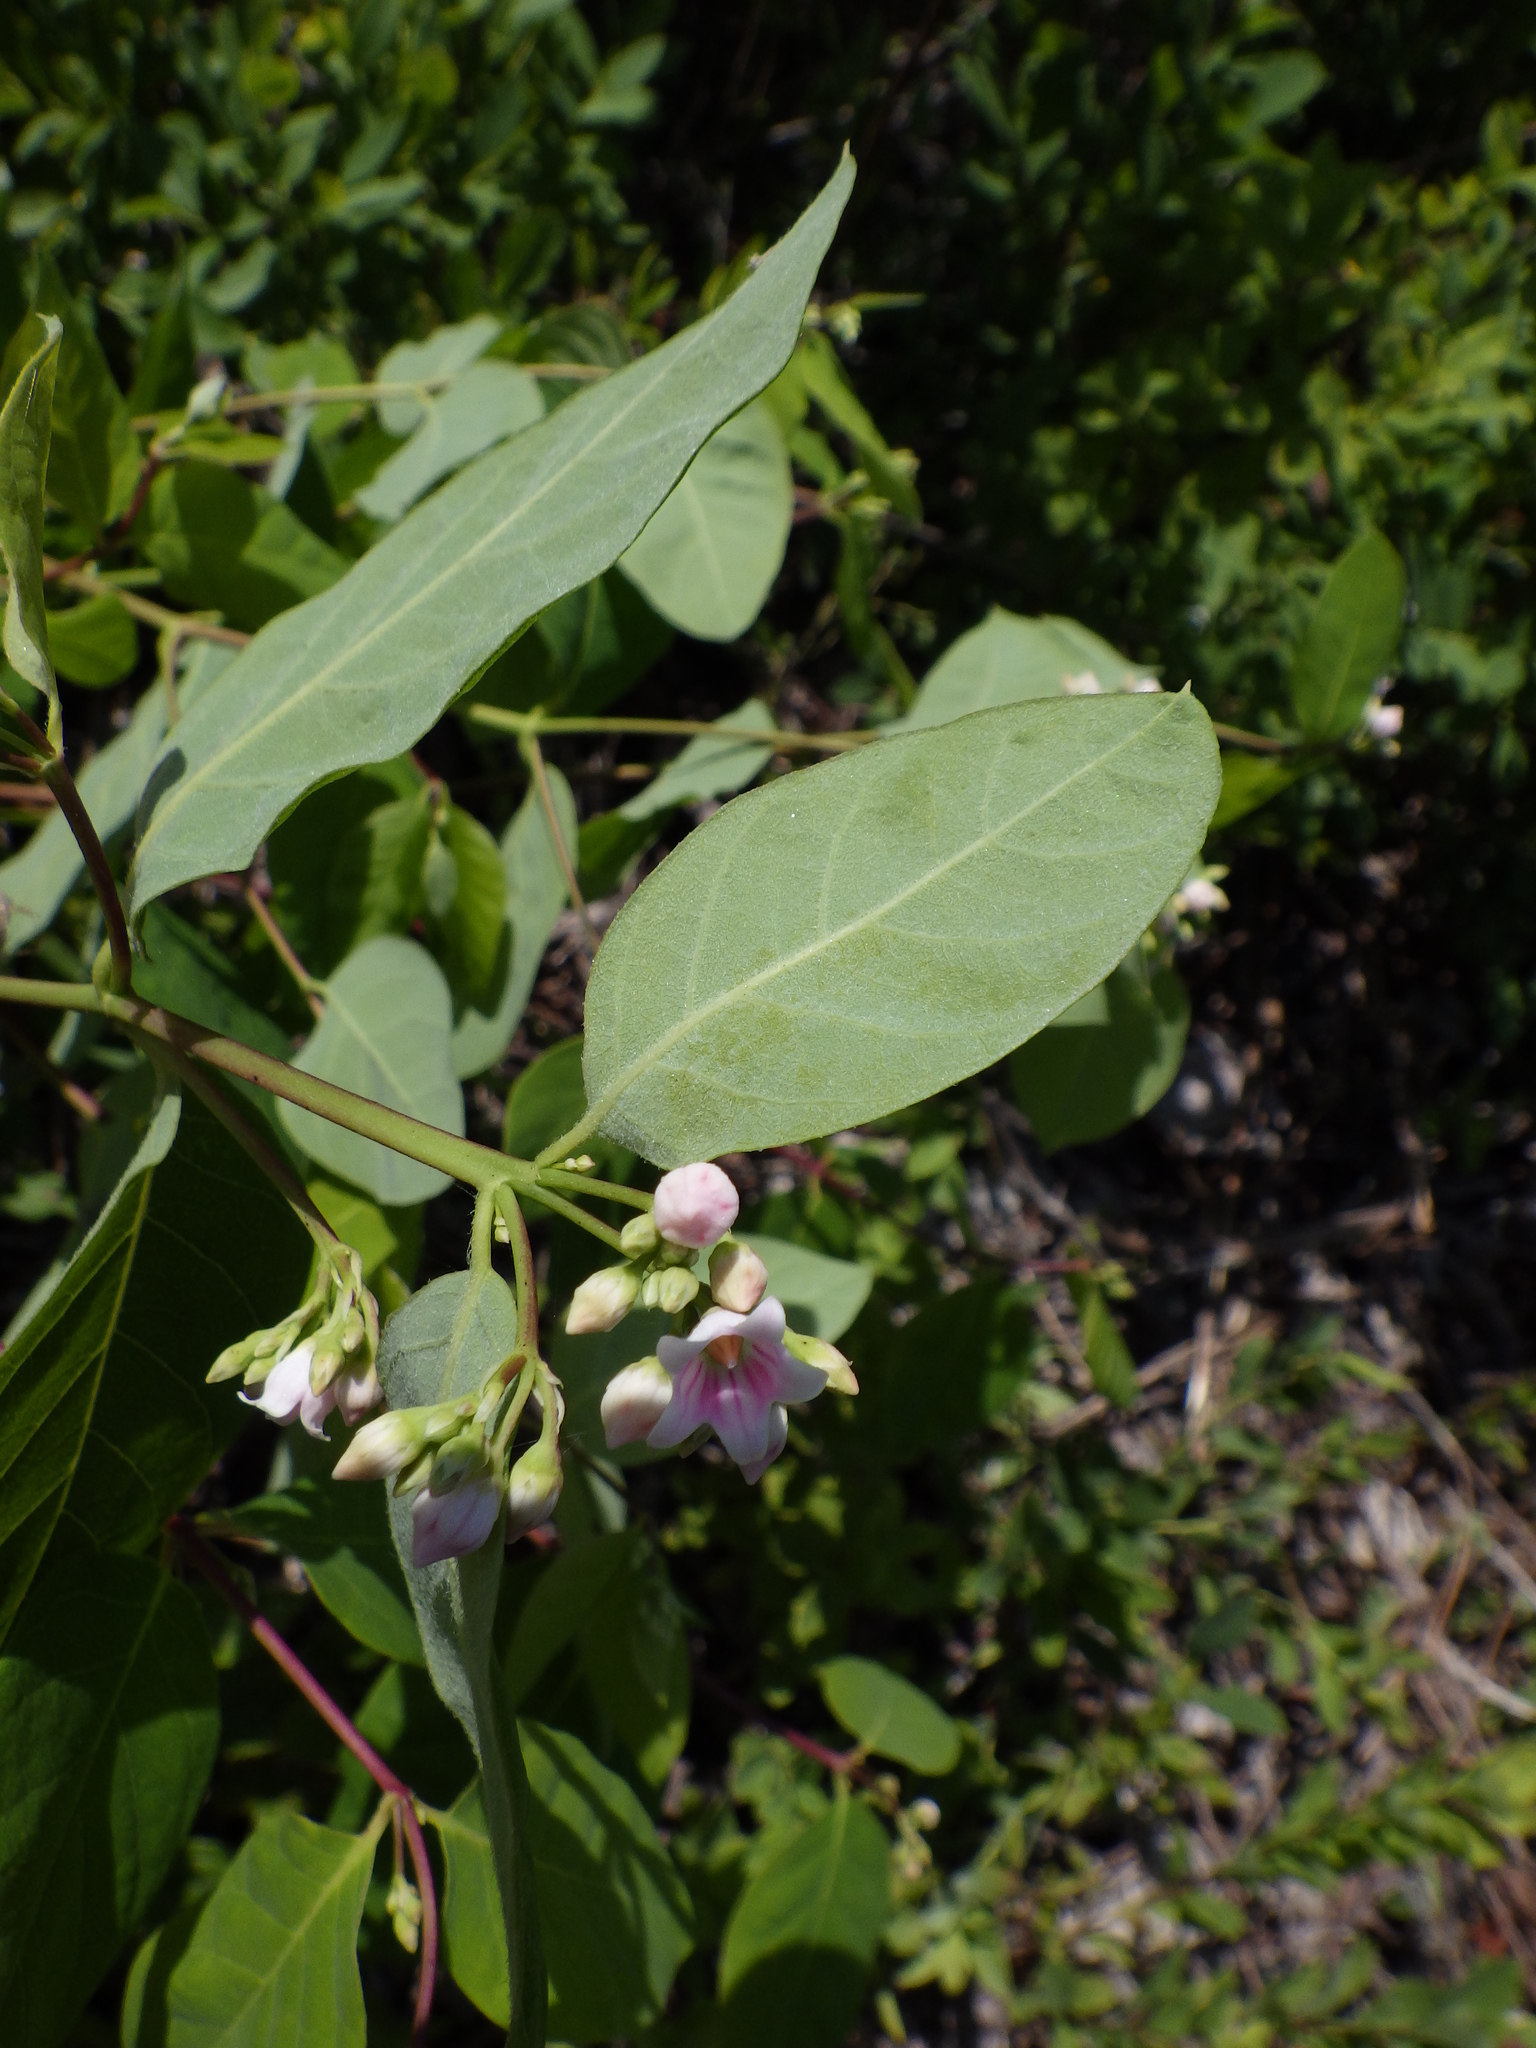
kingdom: Plantae
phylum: Tracheophyta
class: Magnoliopsida
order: Gentianales
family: Apocynaceae
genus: Apocynum
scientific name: Apocynum androsaemifolium
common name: Spreading dogbane
